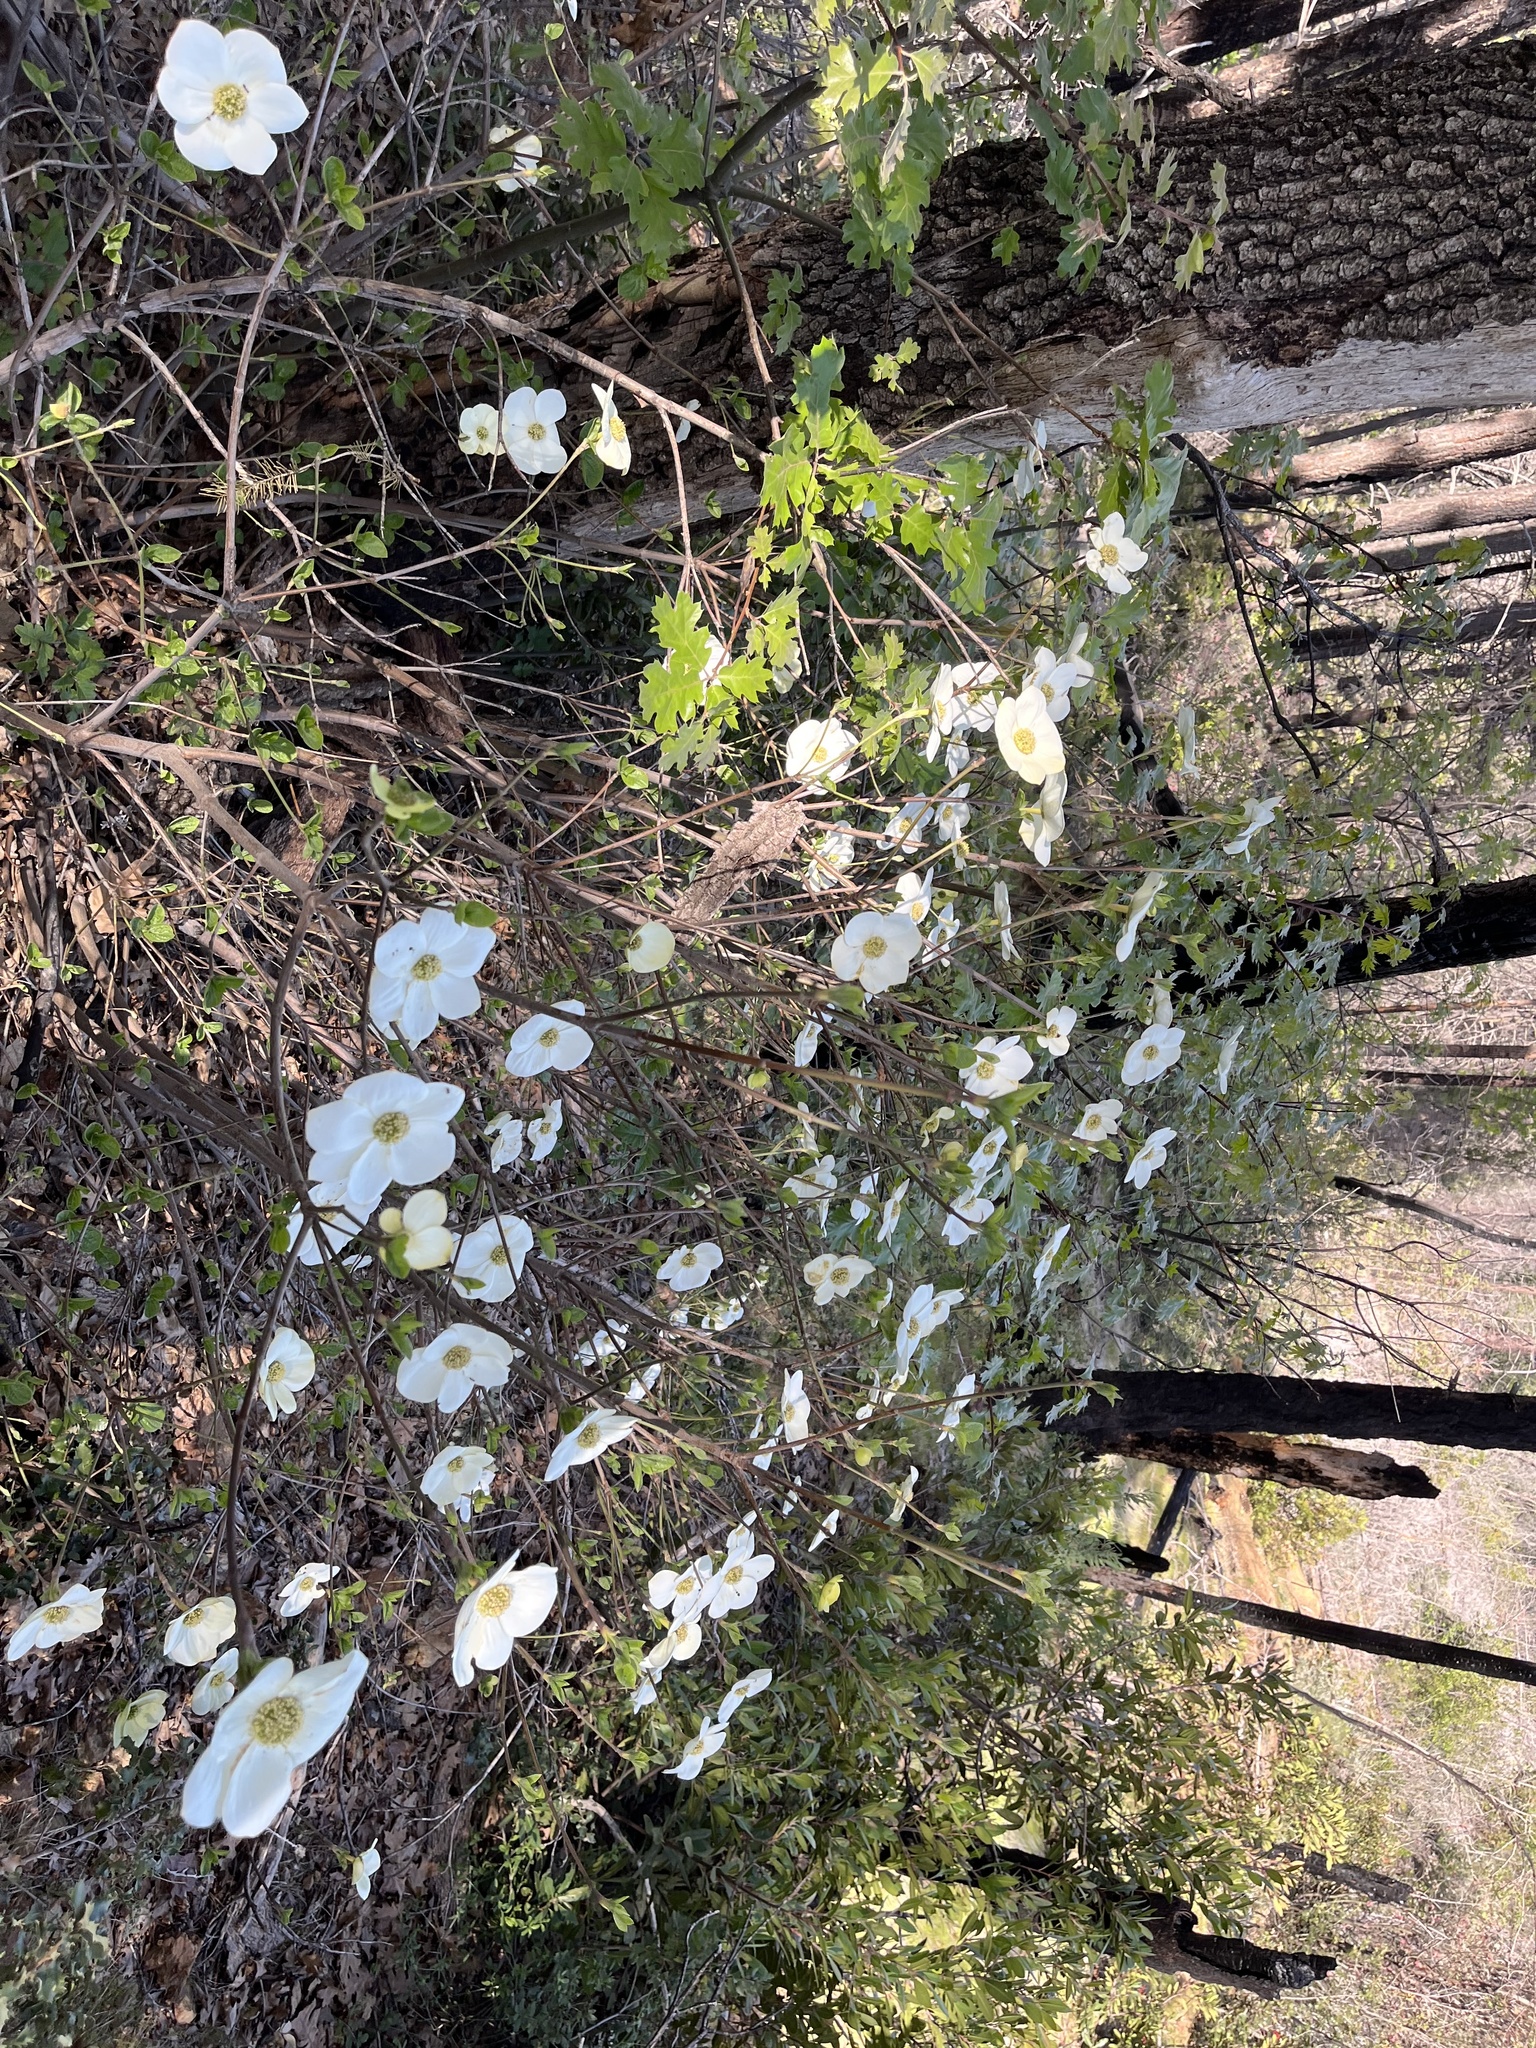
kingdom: Plantae
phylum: Tracheophyta
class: Magnoliopsida
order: Cornales
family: Cornaceae
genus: Cornus
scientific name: Cornus nuttallii
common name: Pacific dogwood
